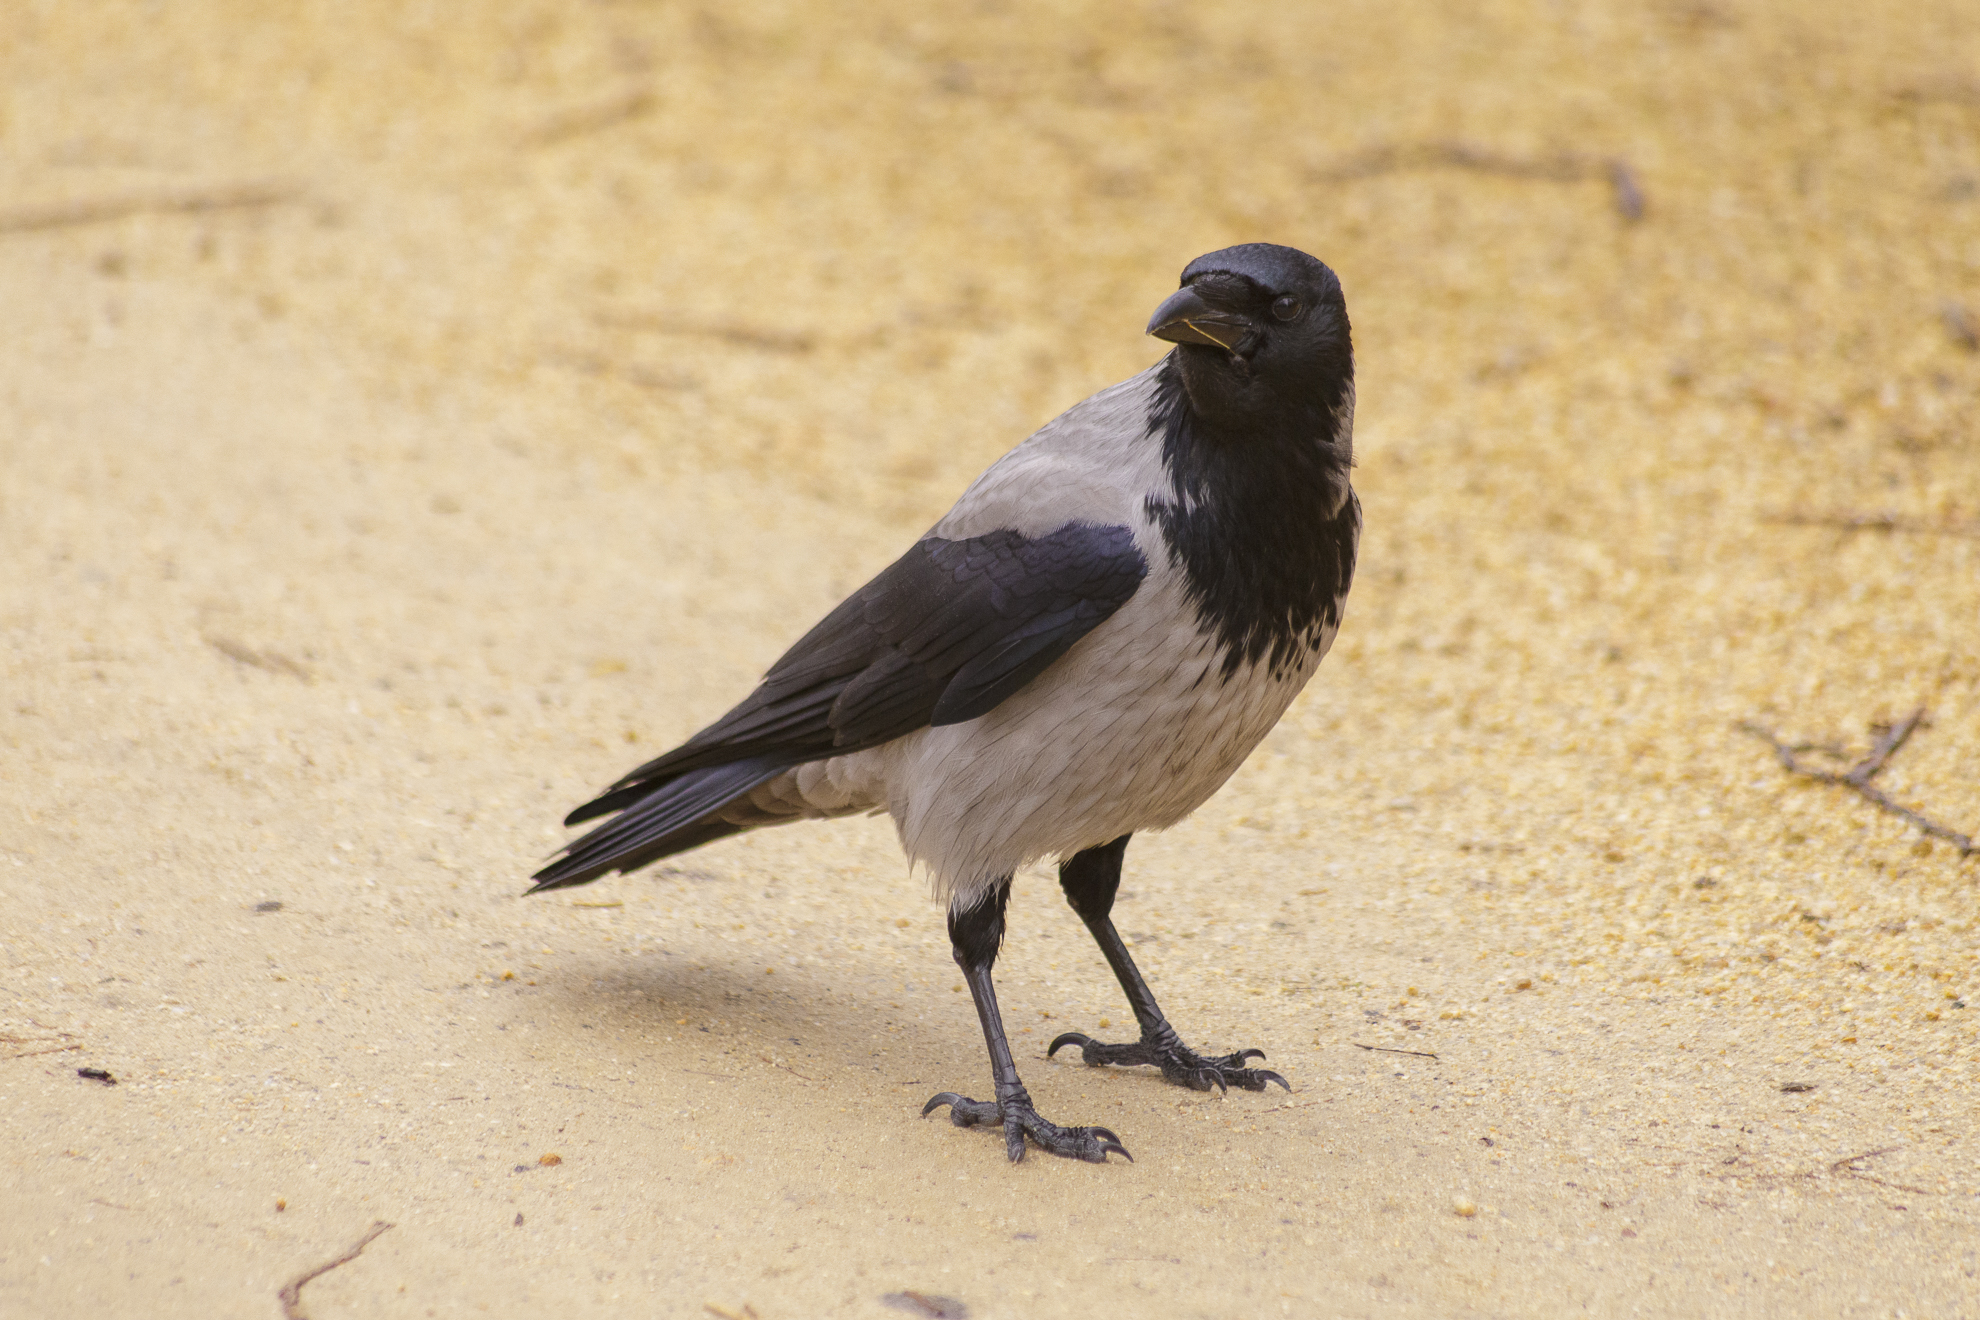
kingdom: Animalia
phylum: Chordata
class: Aves
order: Passeriformes
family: Corvidae
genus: Corvus
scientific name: Corvus cornix
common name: Hooded crow
